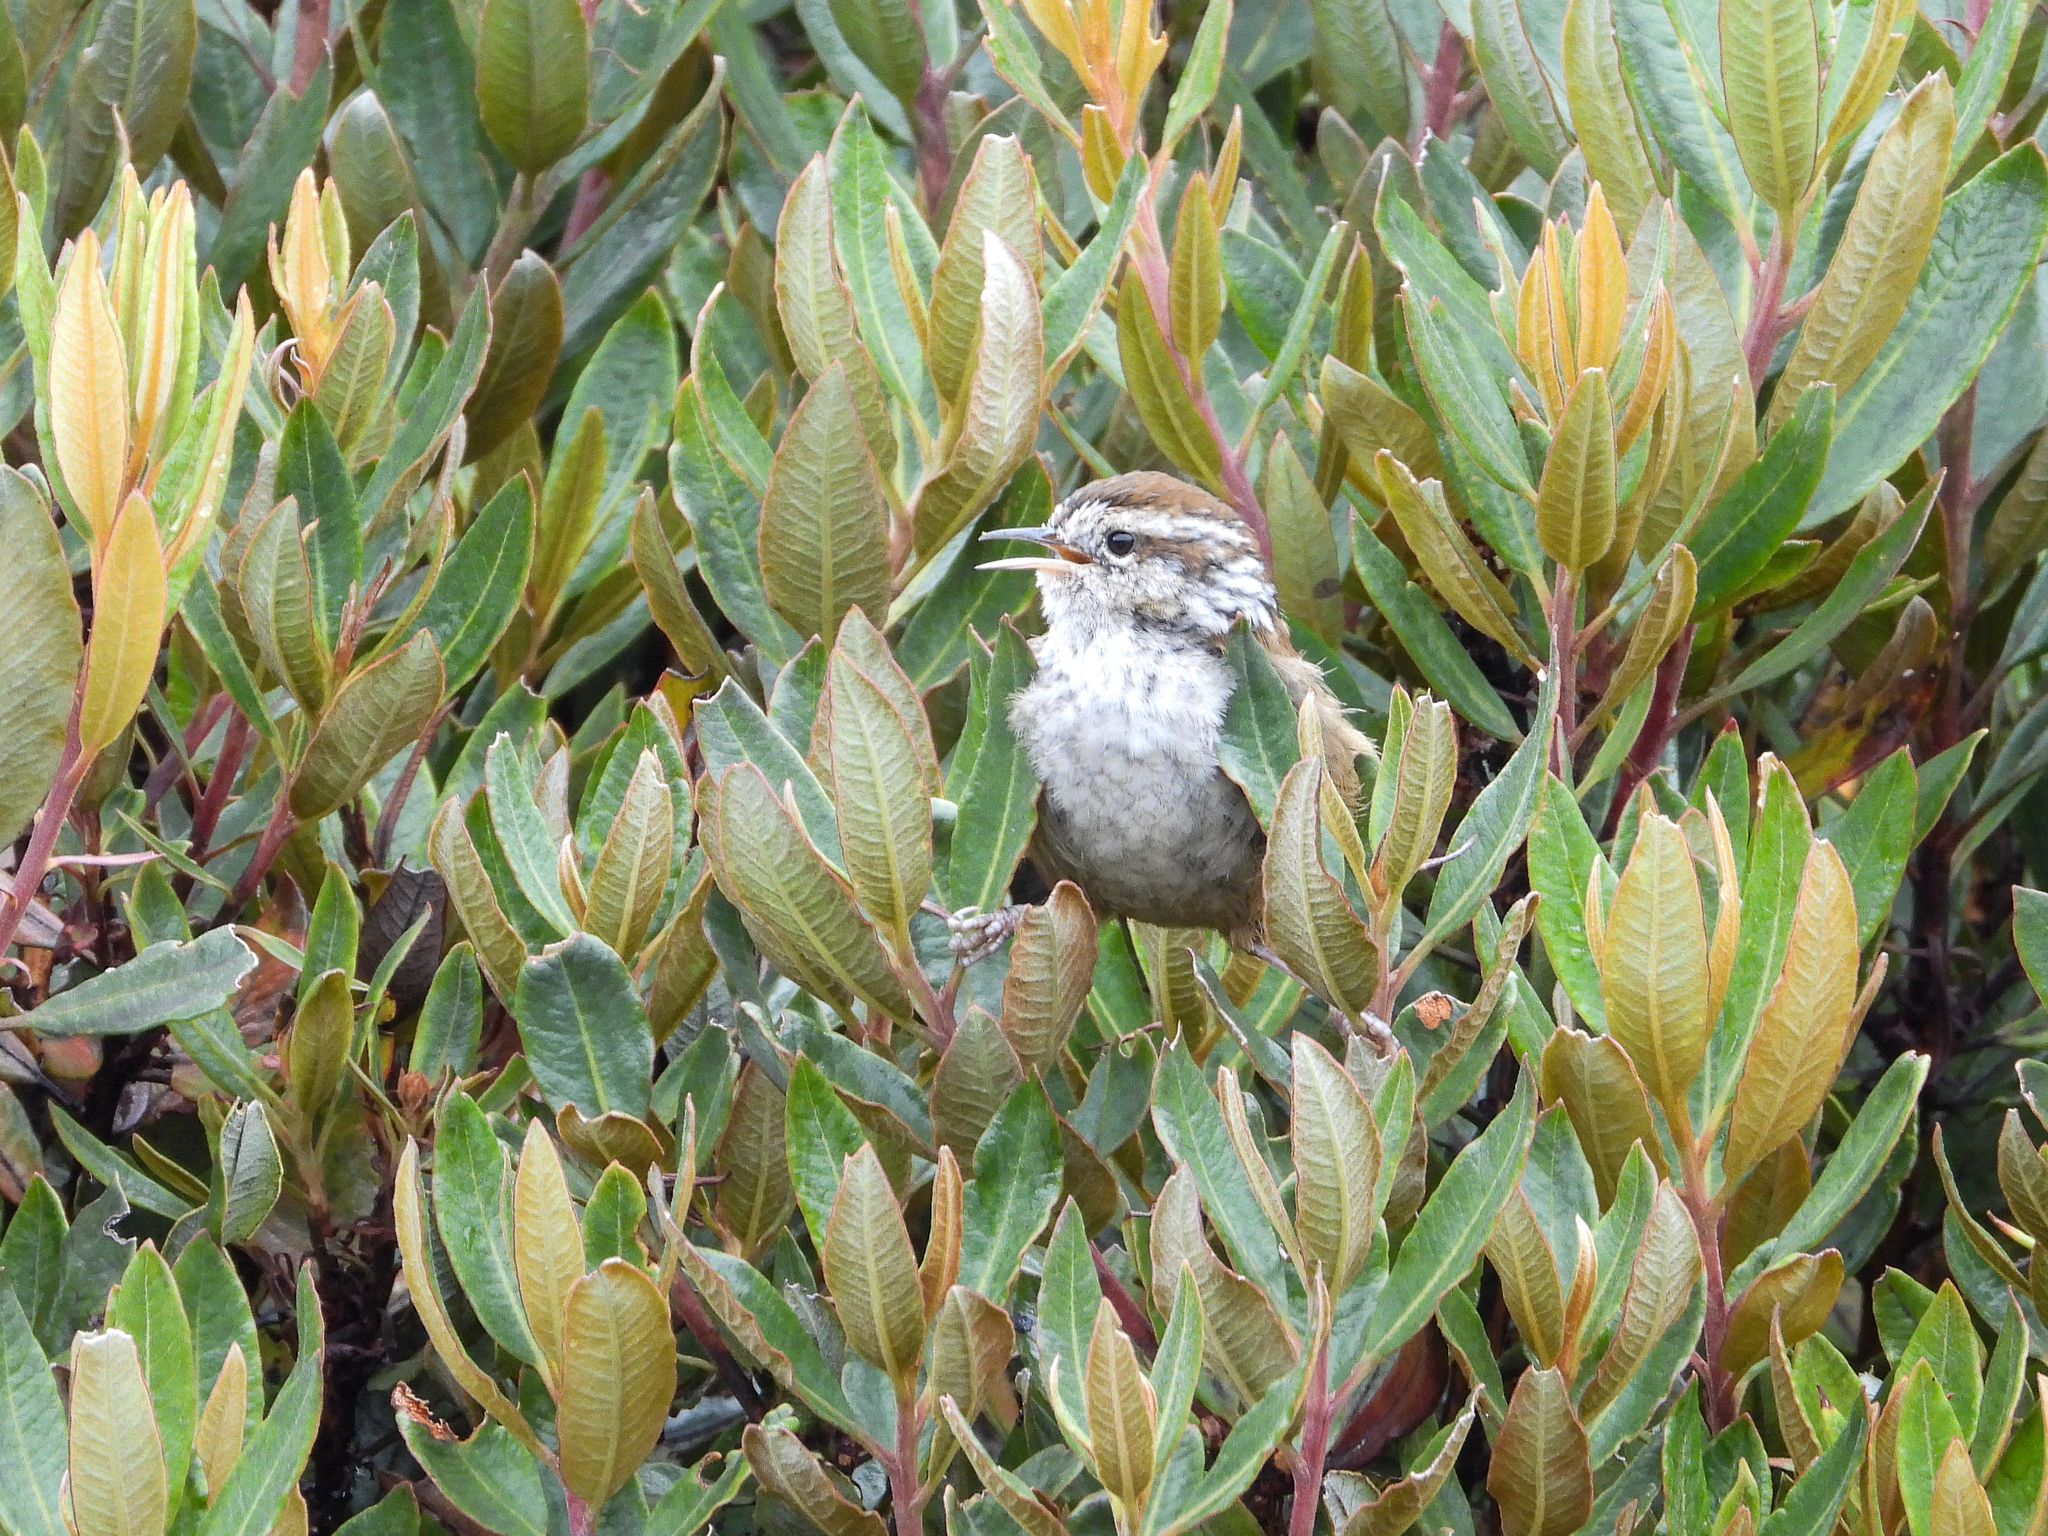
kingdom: Animalia
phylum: Chordata
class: Aves
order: Passeriformes
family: Troglodytidae
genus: Thryorchilus
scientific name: Thryorchilus browni
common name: Timberline wren
